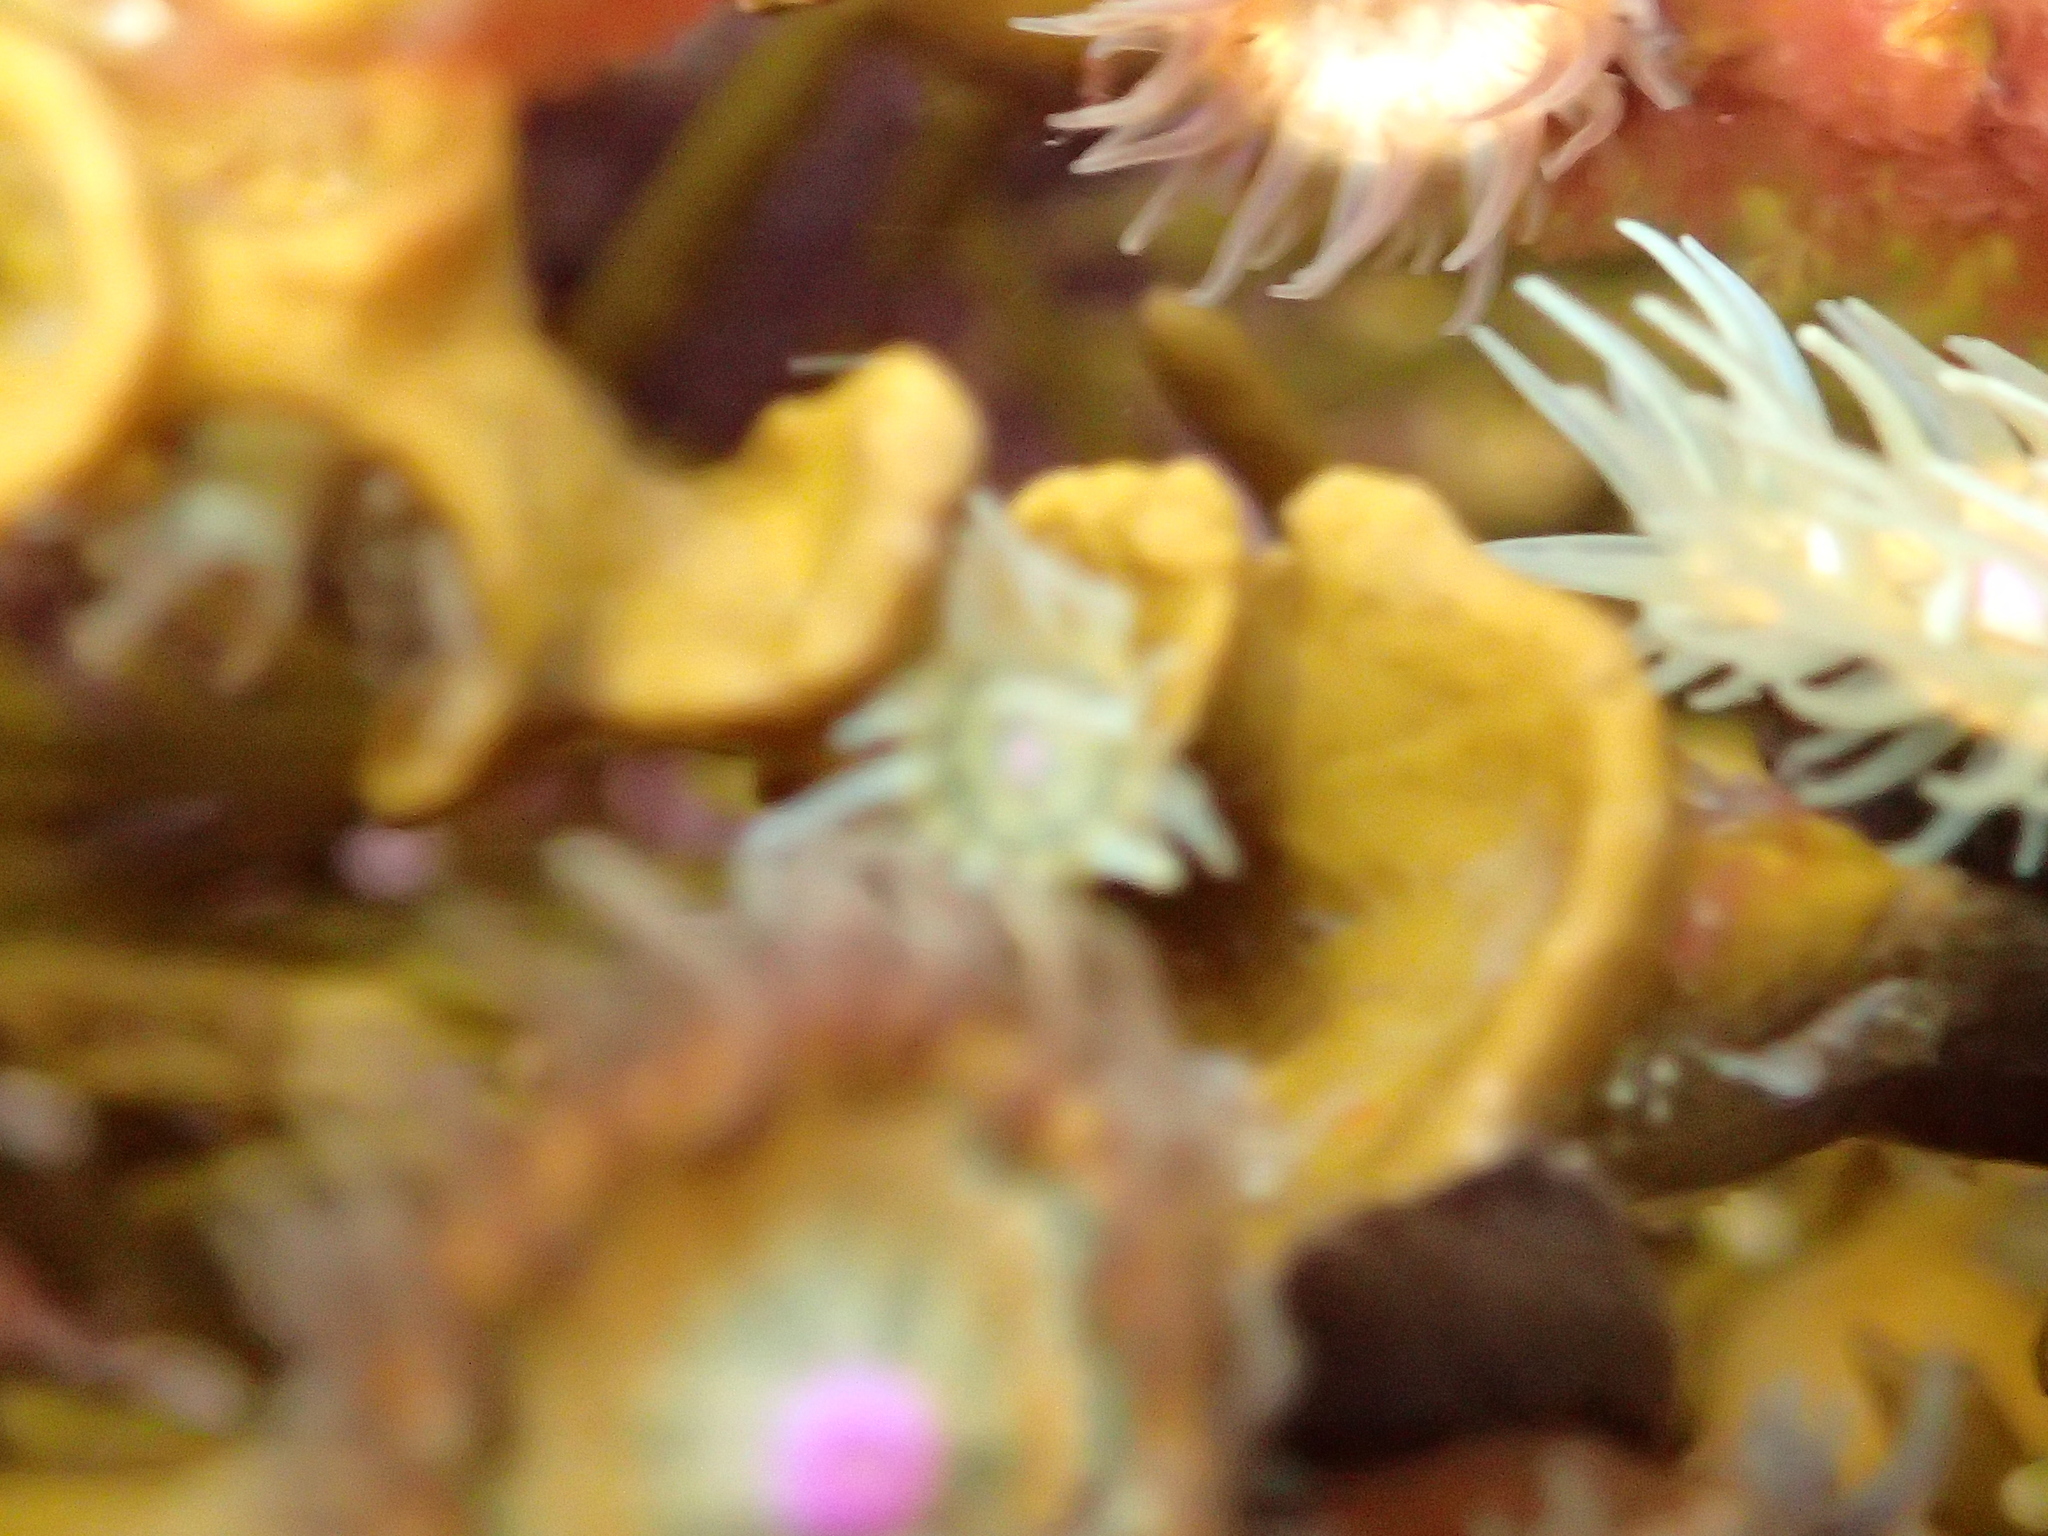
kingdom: Animalia
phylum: Cnidaria
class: Anthozoa
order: Actiniaria
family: Hormathiidae
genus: Handactis
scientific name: Handactis nutrix
